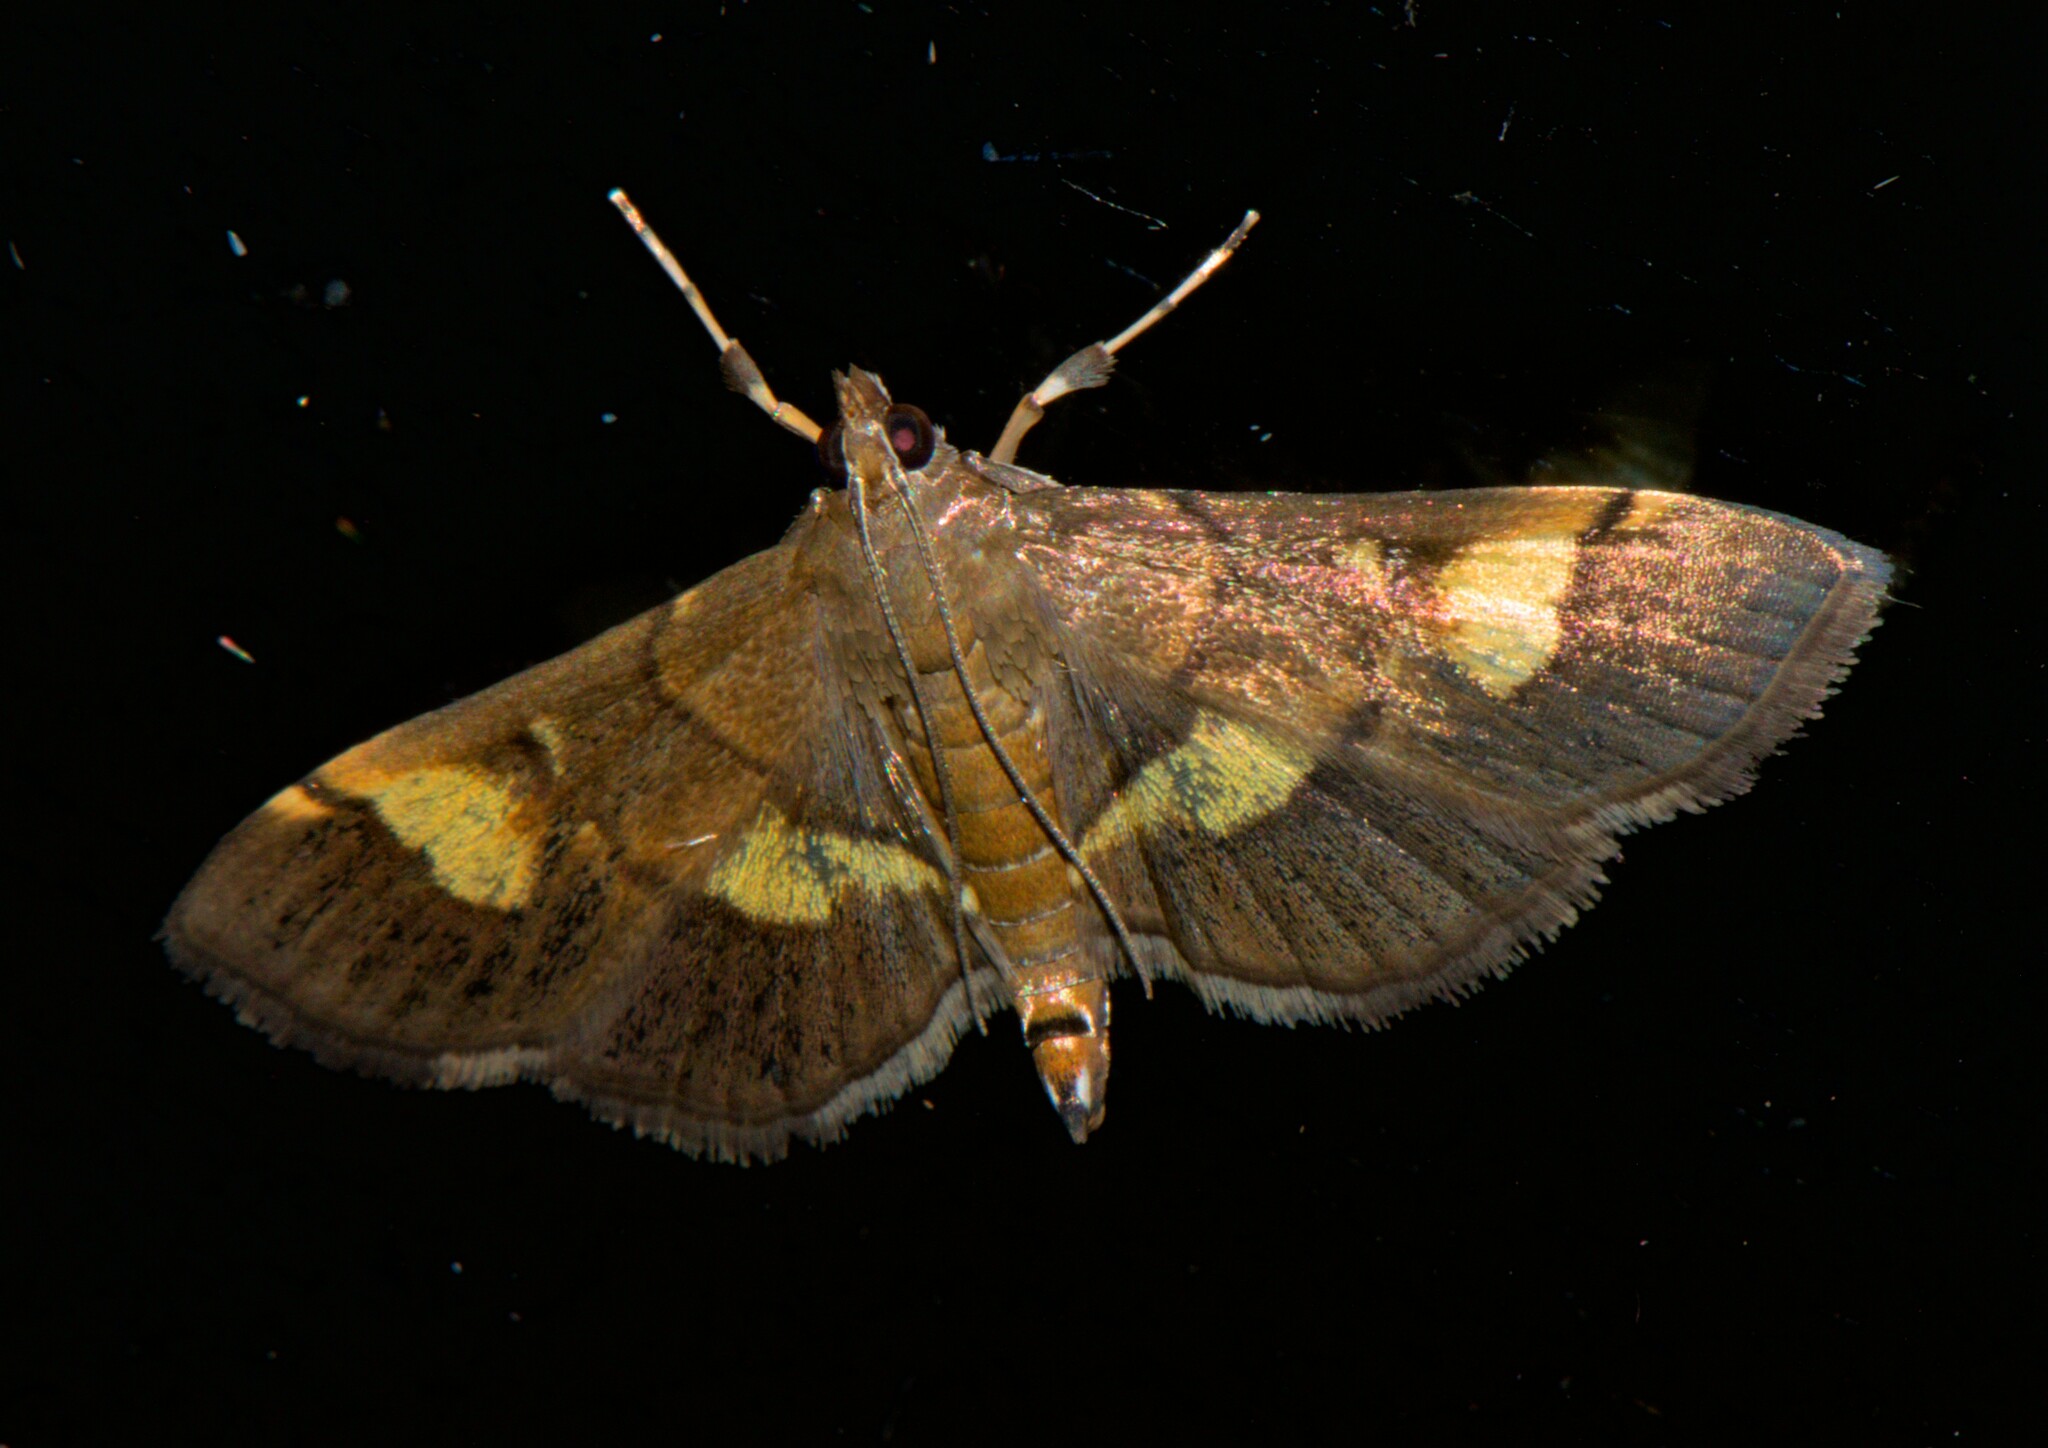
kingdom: Animalia
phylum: Arthropoda
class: Insecta
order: Lepidoptera
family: Crambidae
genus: Syngamia
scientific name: Syngamia falsidicalis
